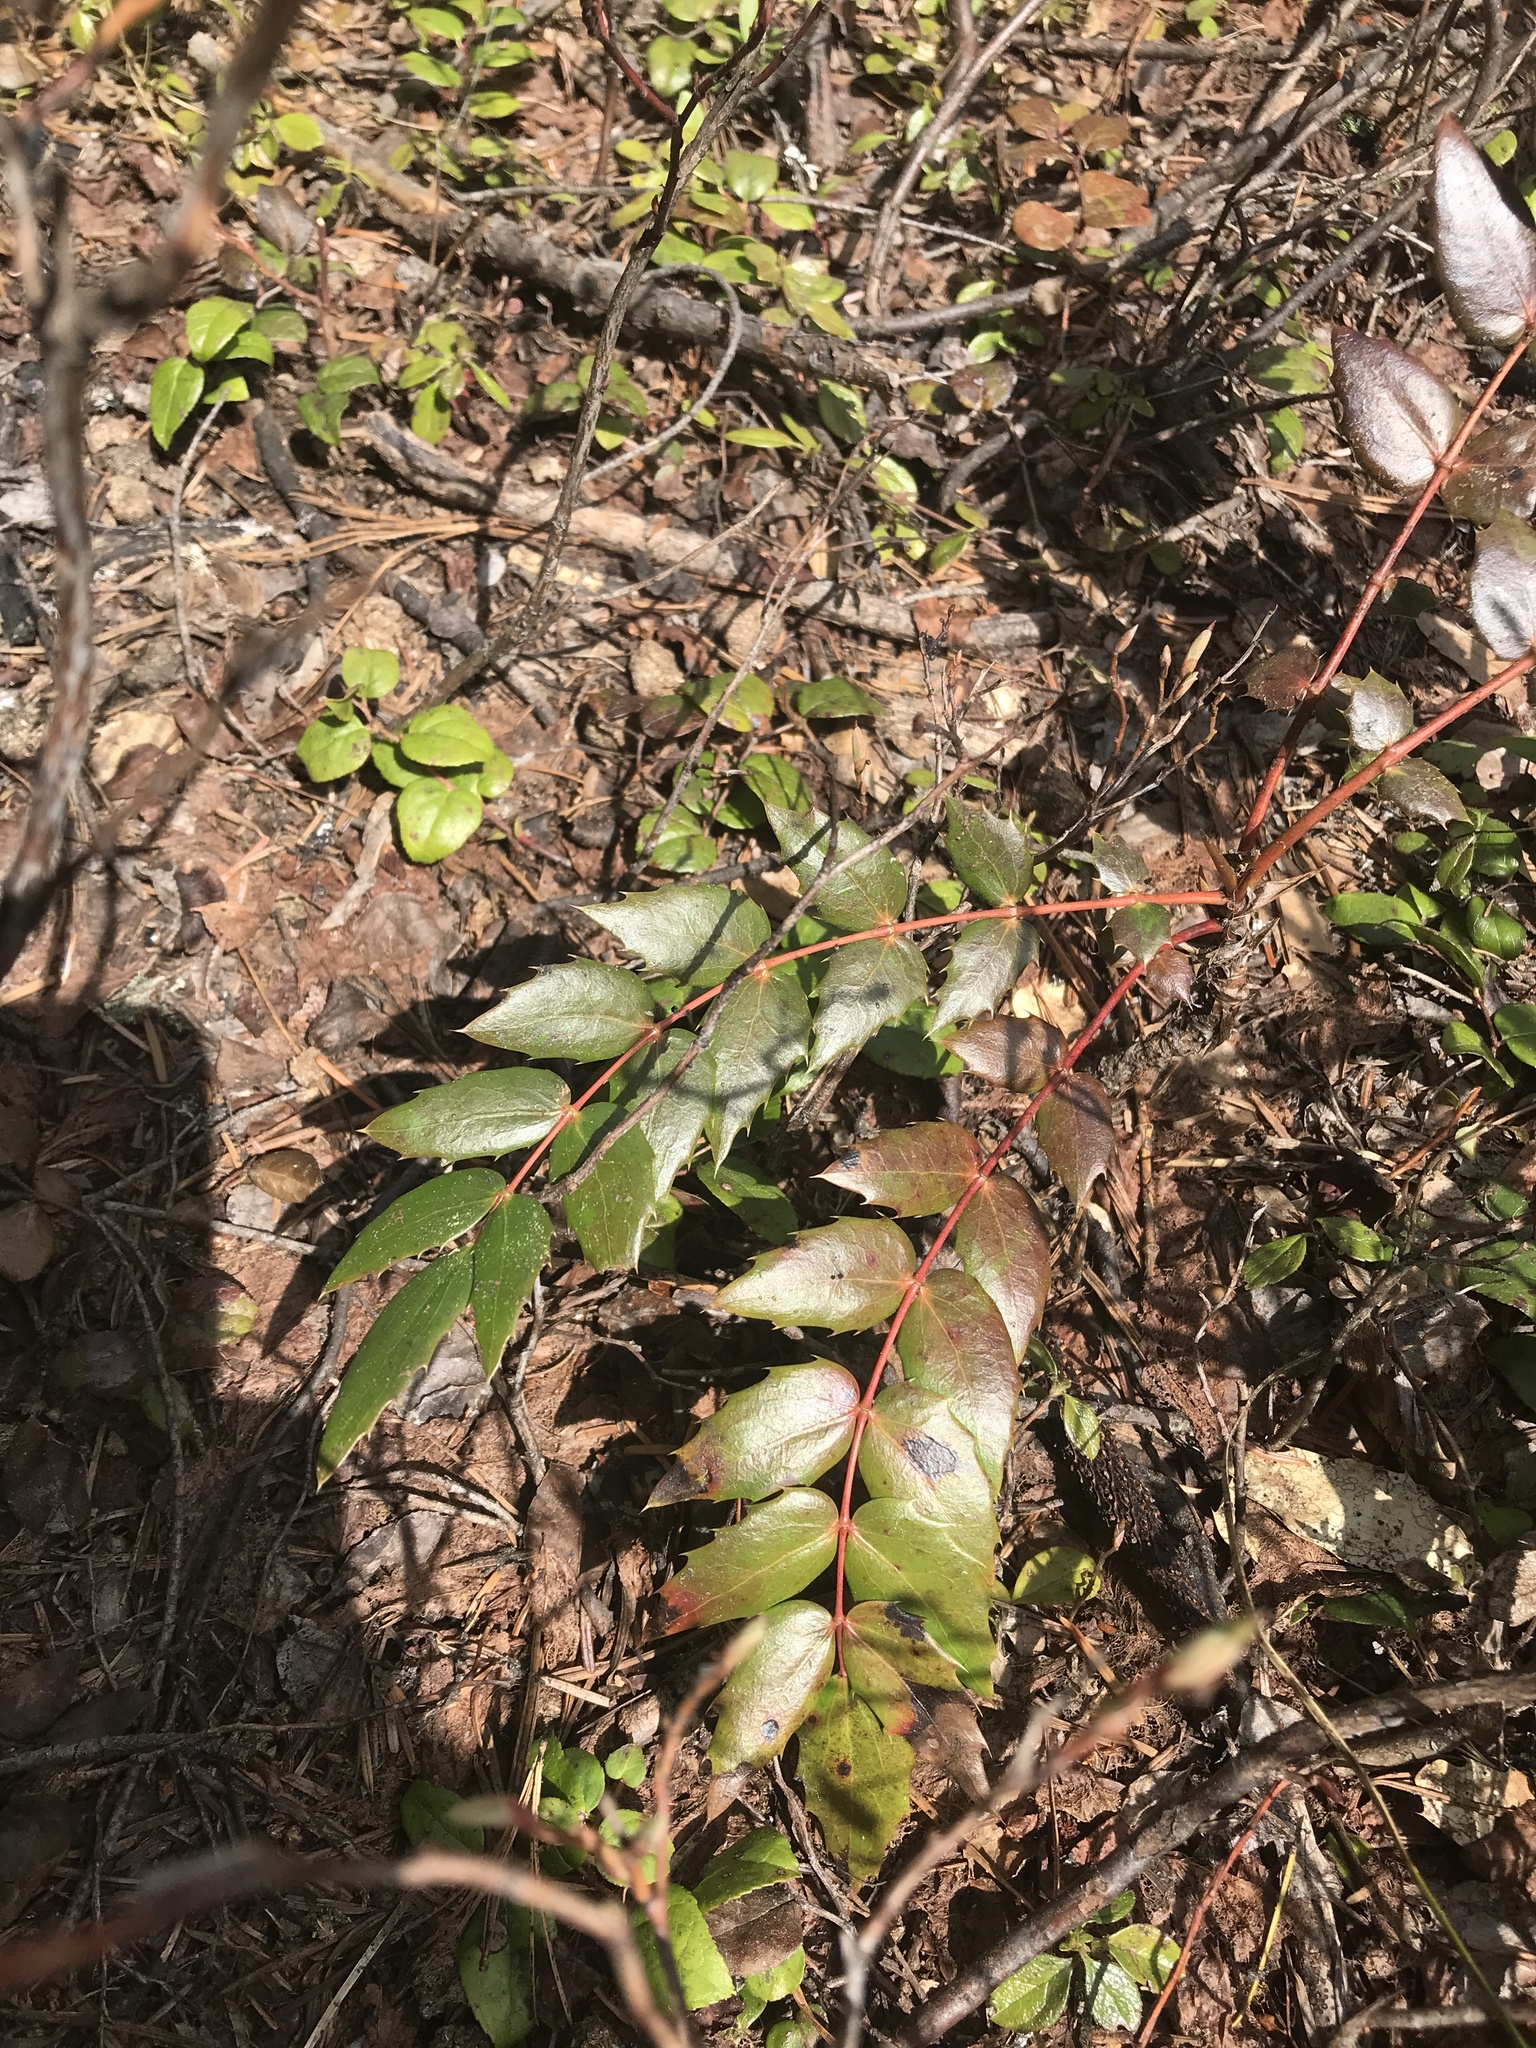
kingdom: Plantae
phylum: Tracheophyta
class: Magnoliopsida
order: Ranunculales
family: Berberidaceae
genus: Mahonia
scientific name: Mahonia nervosa
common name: Cascade oregon-grape
